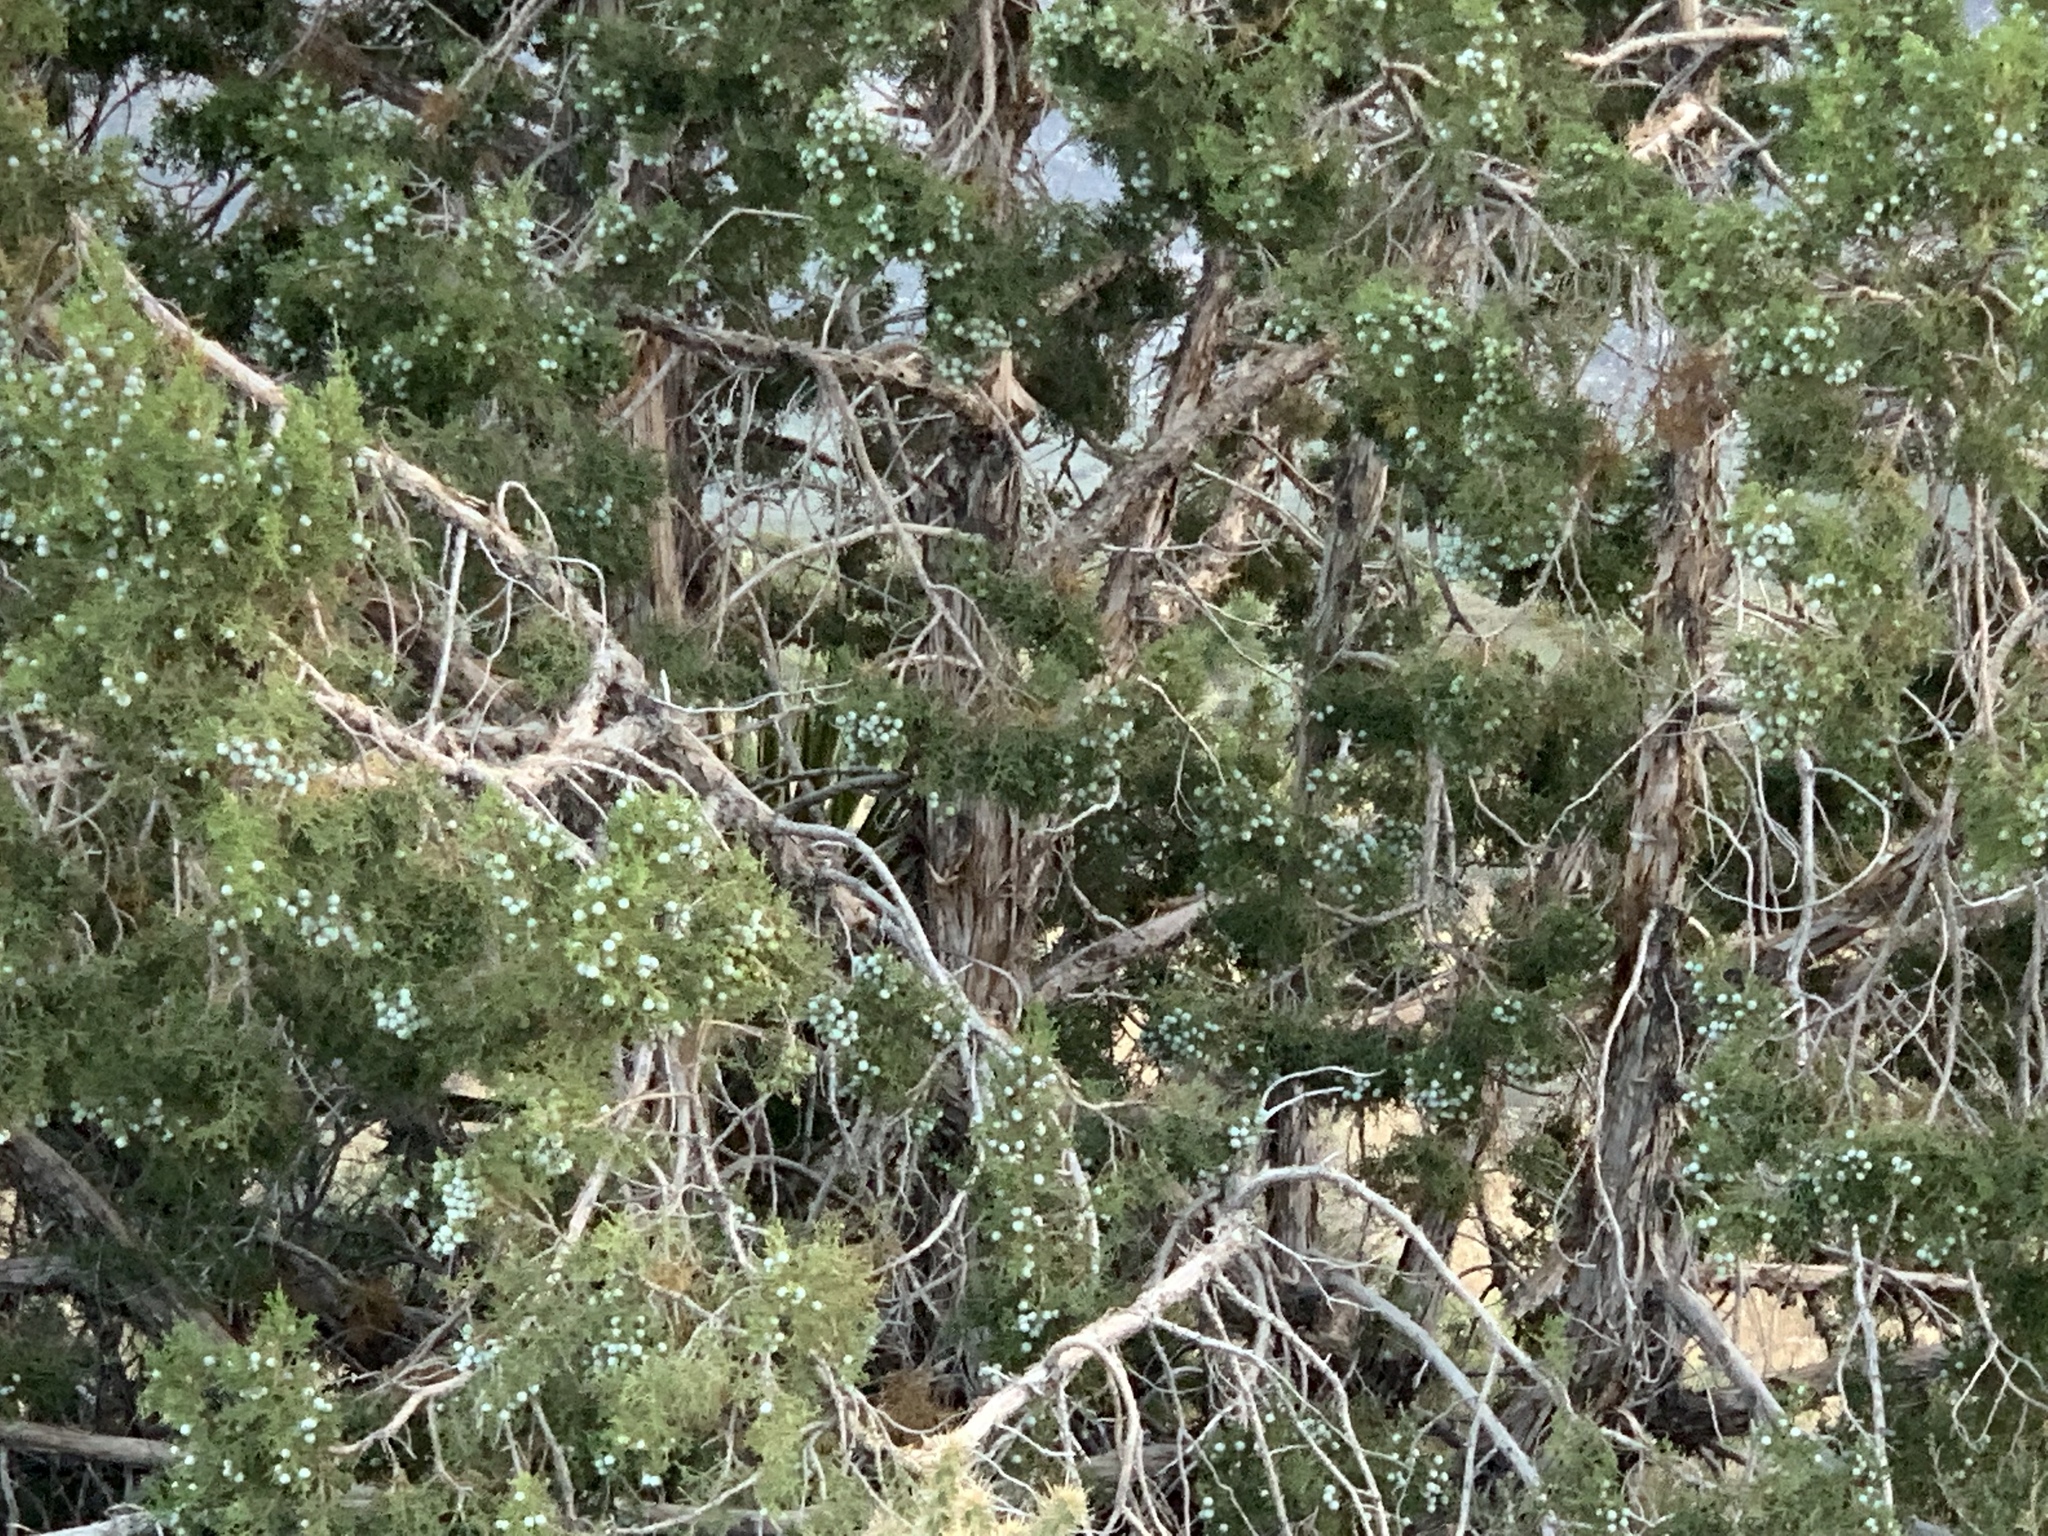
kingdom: Plantae
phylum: Tracheophyta
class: Pinopsida
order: Pinales
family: Cupressaceae
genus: Juniperus
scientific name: Juniperus osteosperma
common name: Utah juniper
